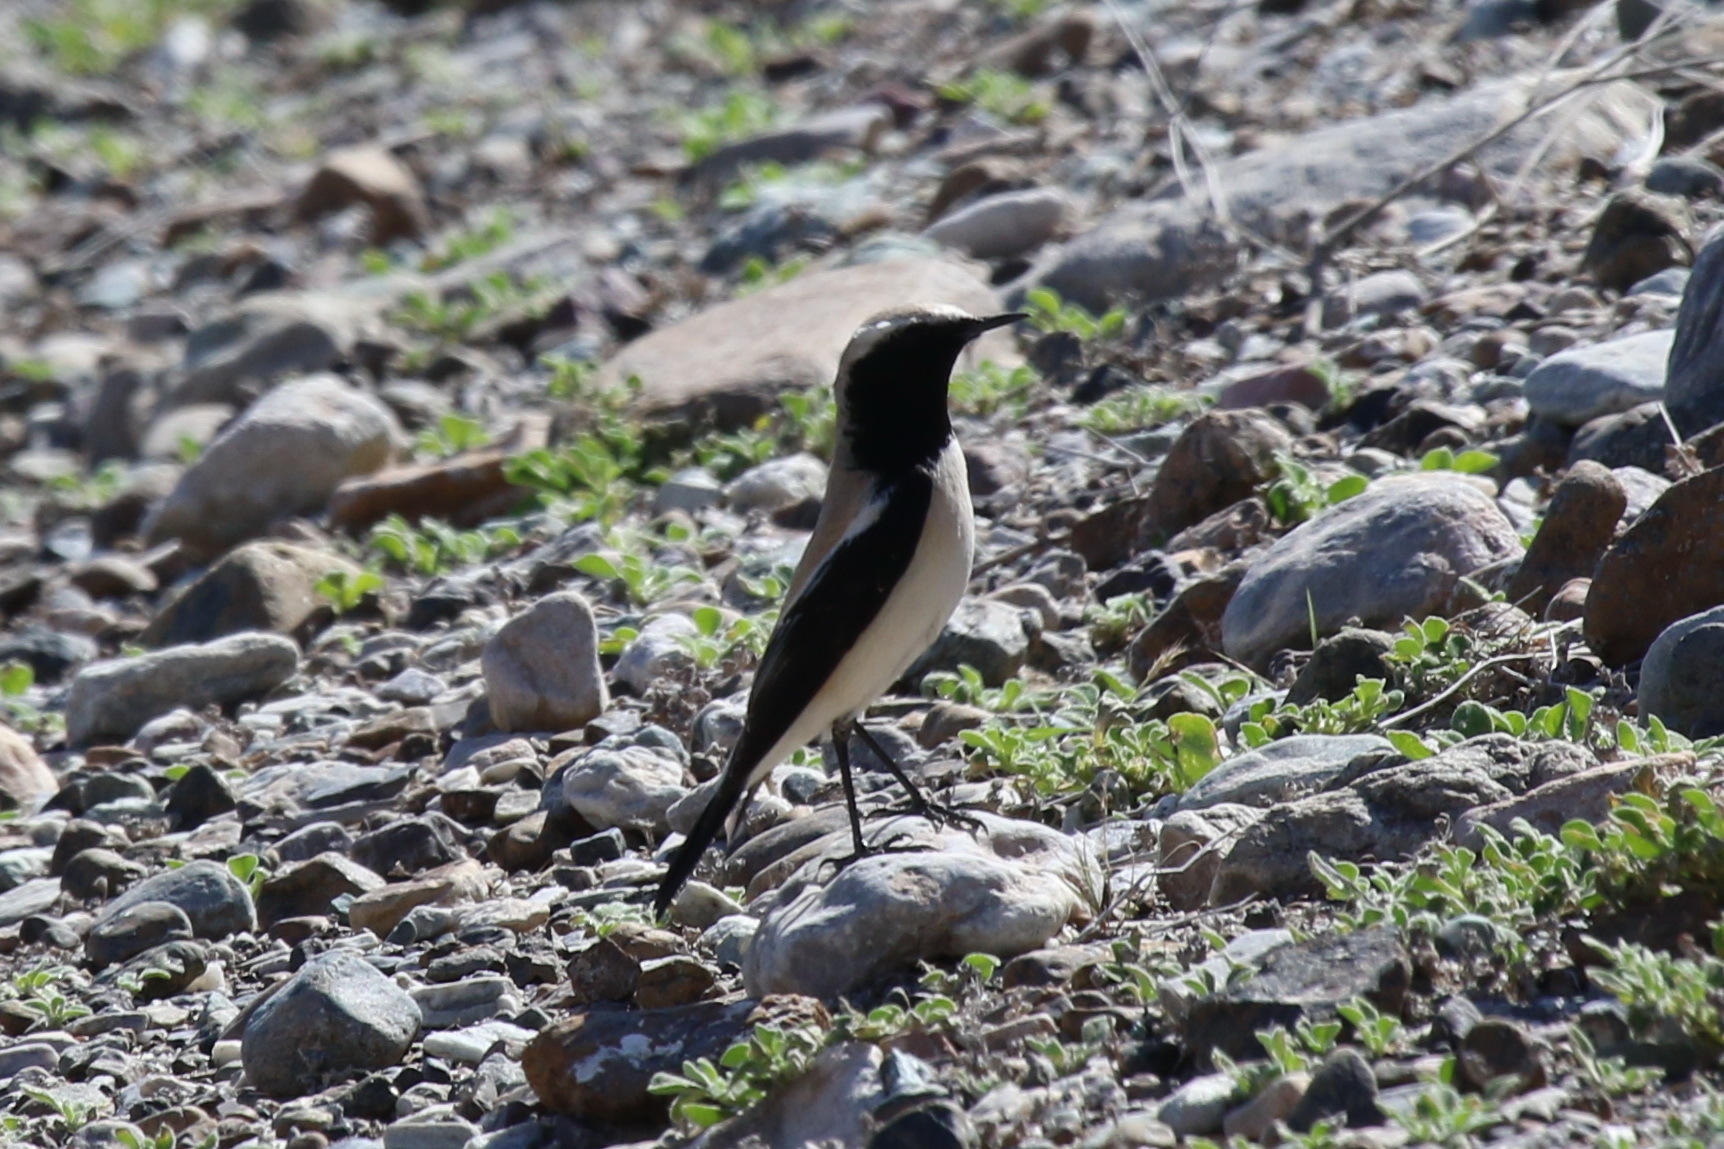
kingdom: Animalia
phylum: Chordata
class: Aves
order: Passeriformes
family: Muscicapidae
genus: Oenanthe
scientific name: Oenanthe deserti
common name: Desert wheatear
